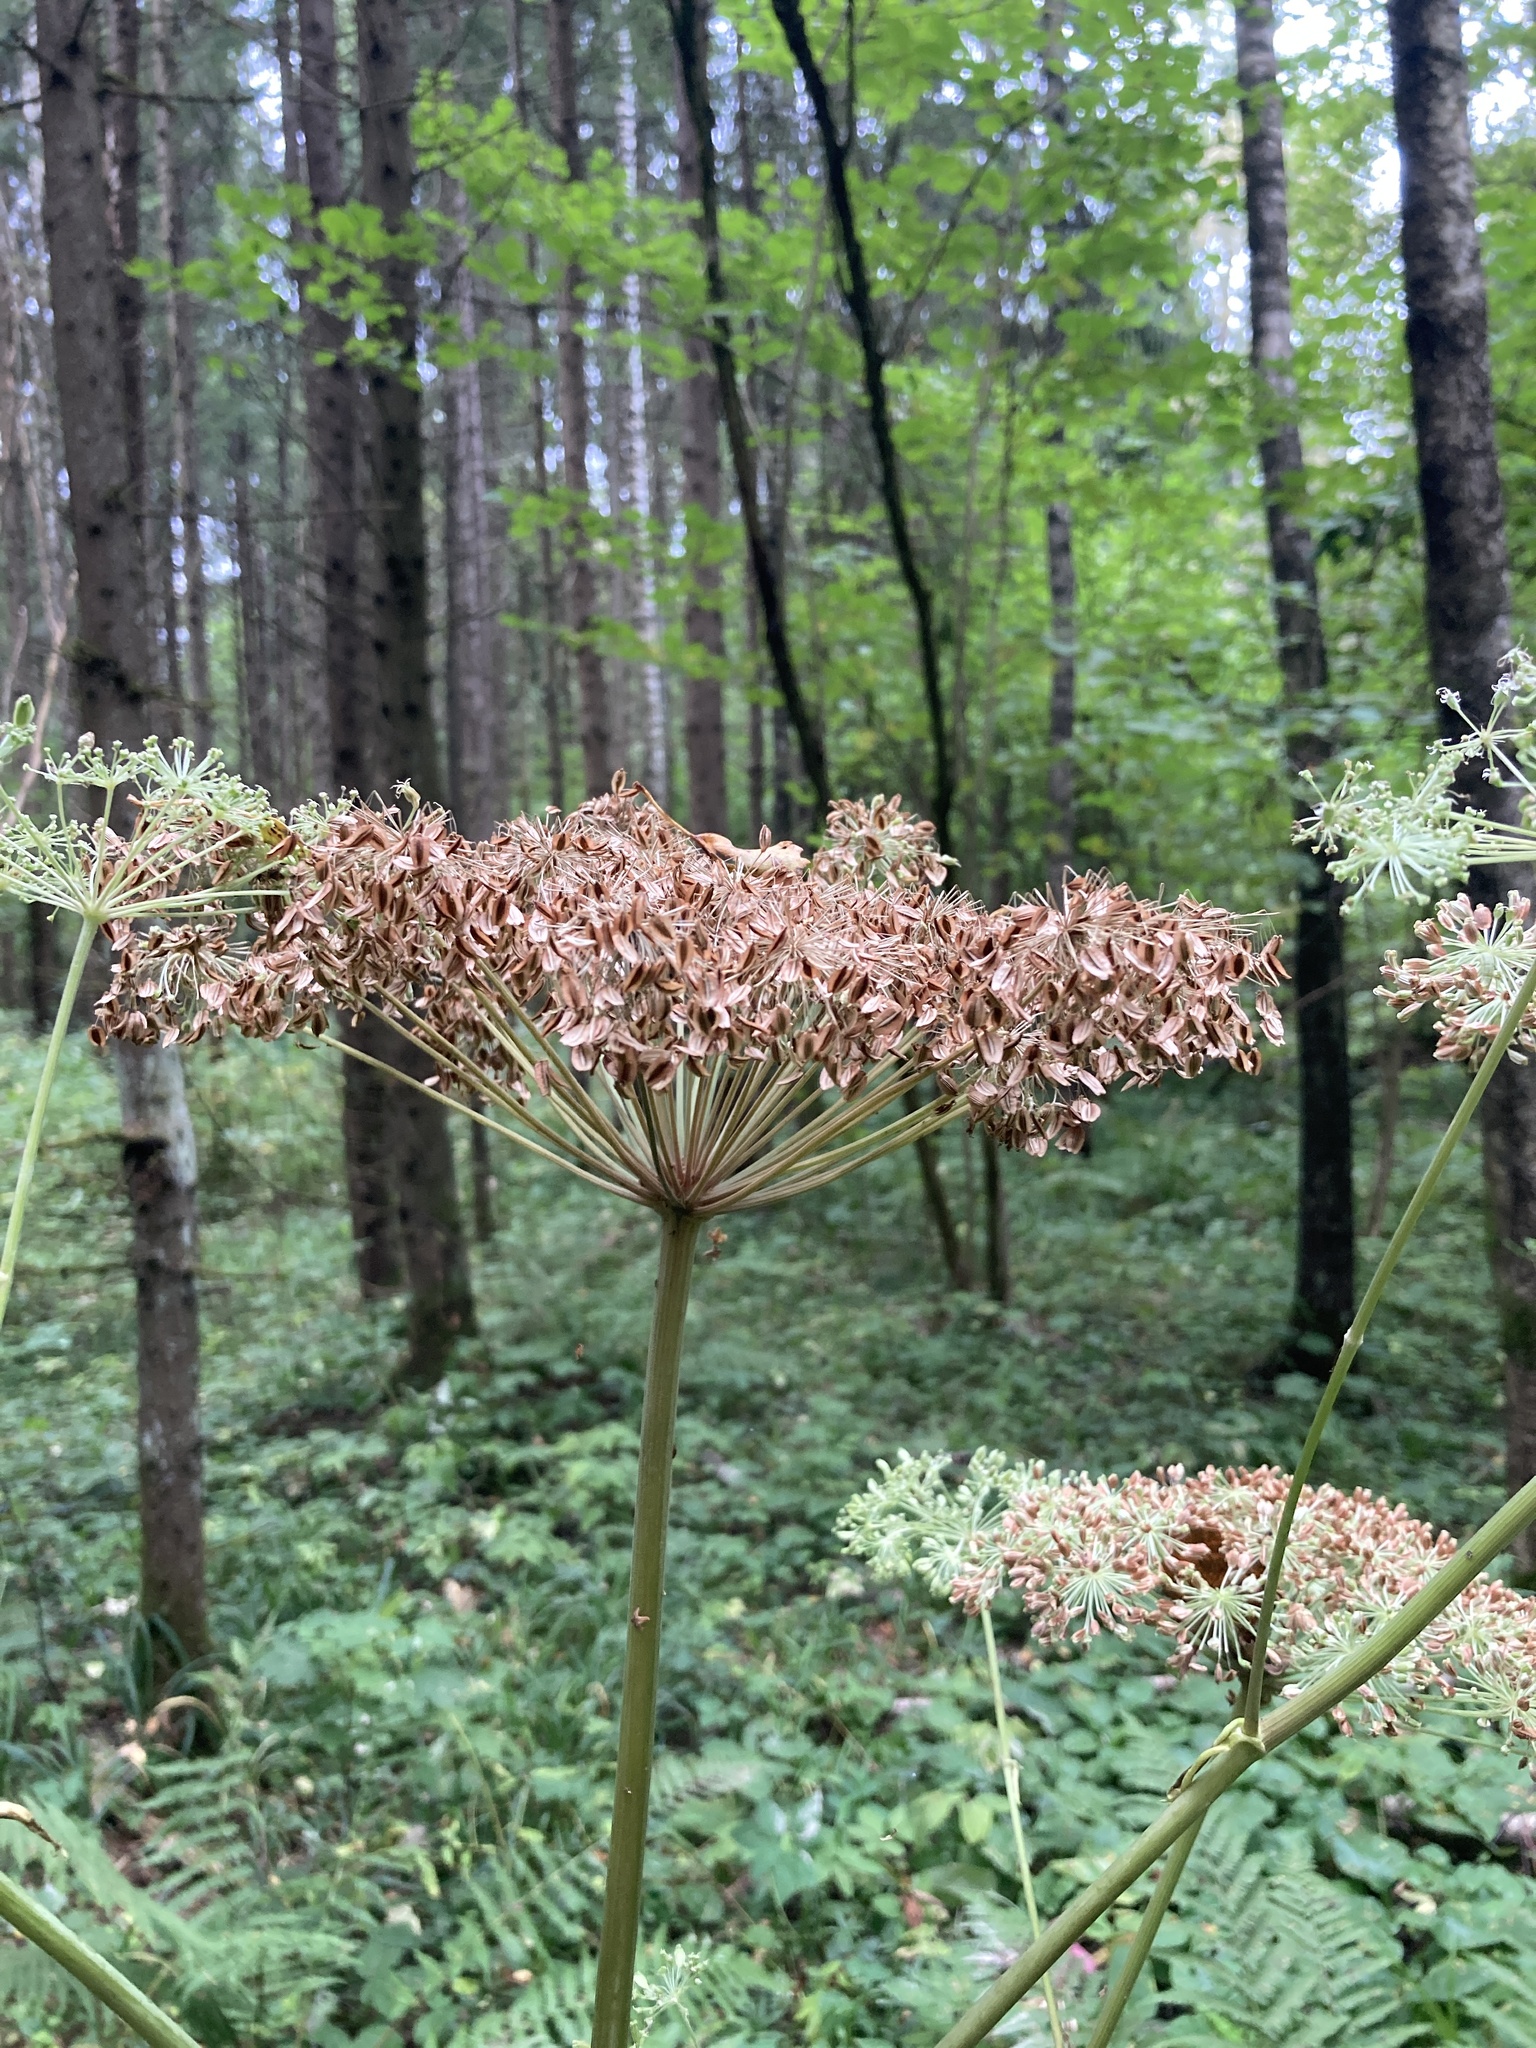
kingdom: Plantae
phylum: Tracheophyta
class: Magnoliopsida
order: Apiales
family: Apiaceae
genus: Angelica
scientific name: Angelica sylvestris
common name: Wild angelica
